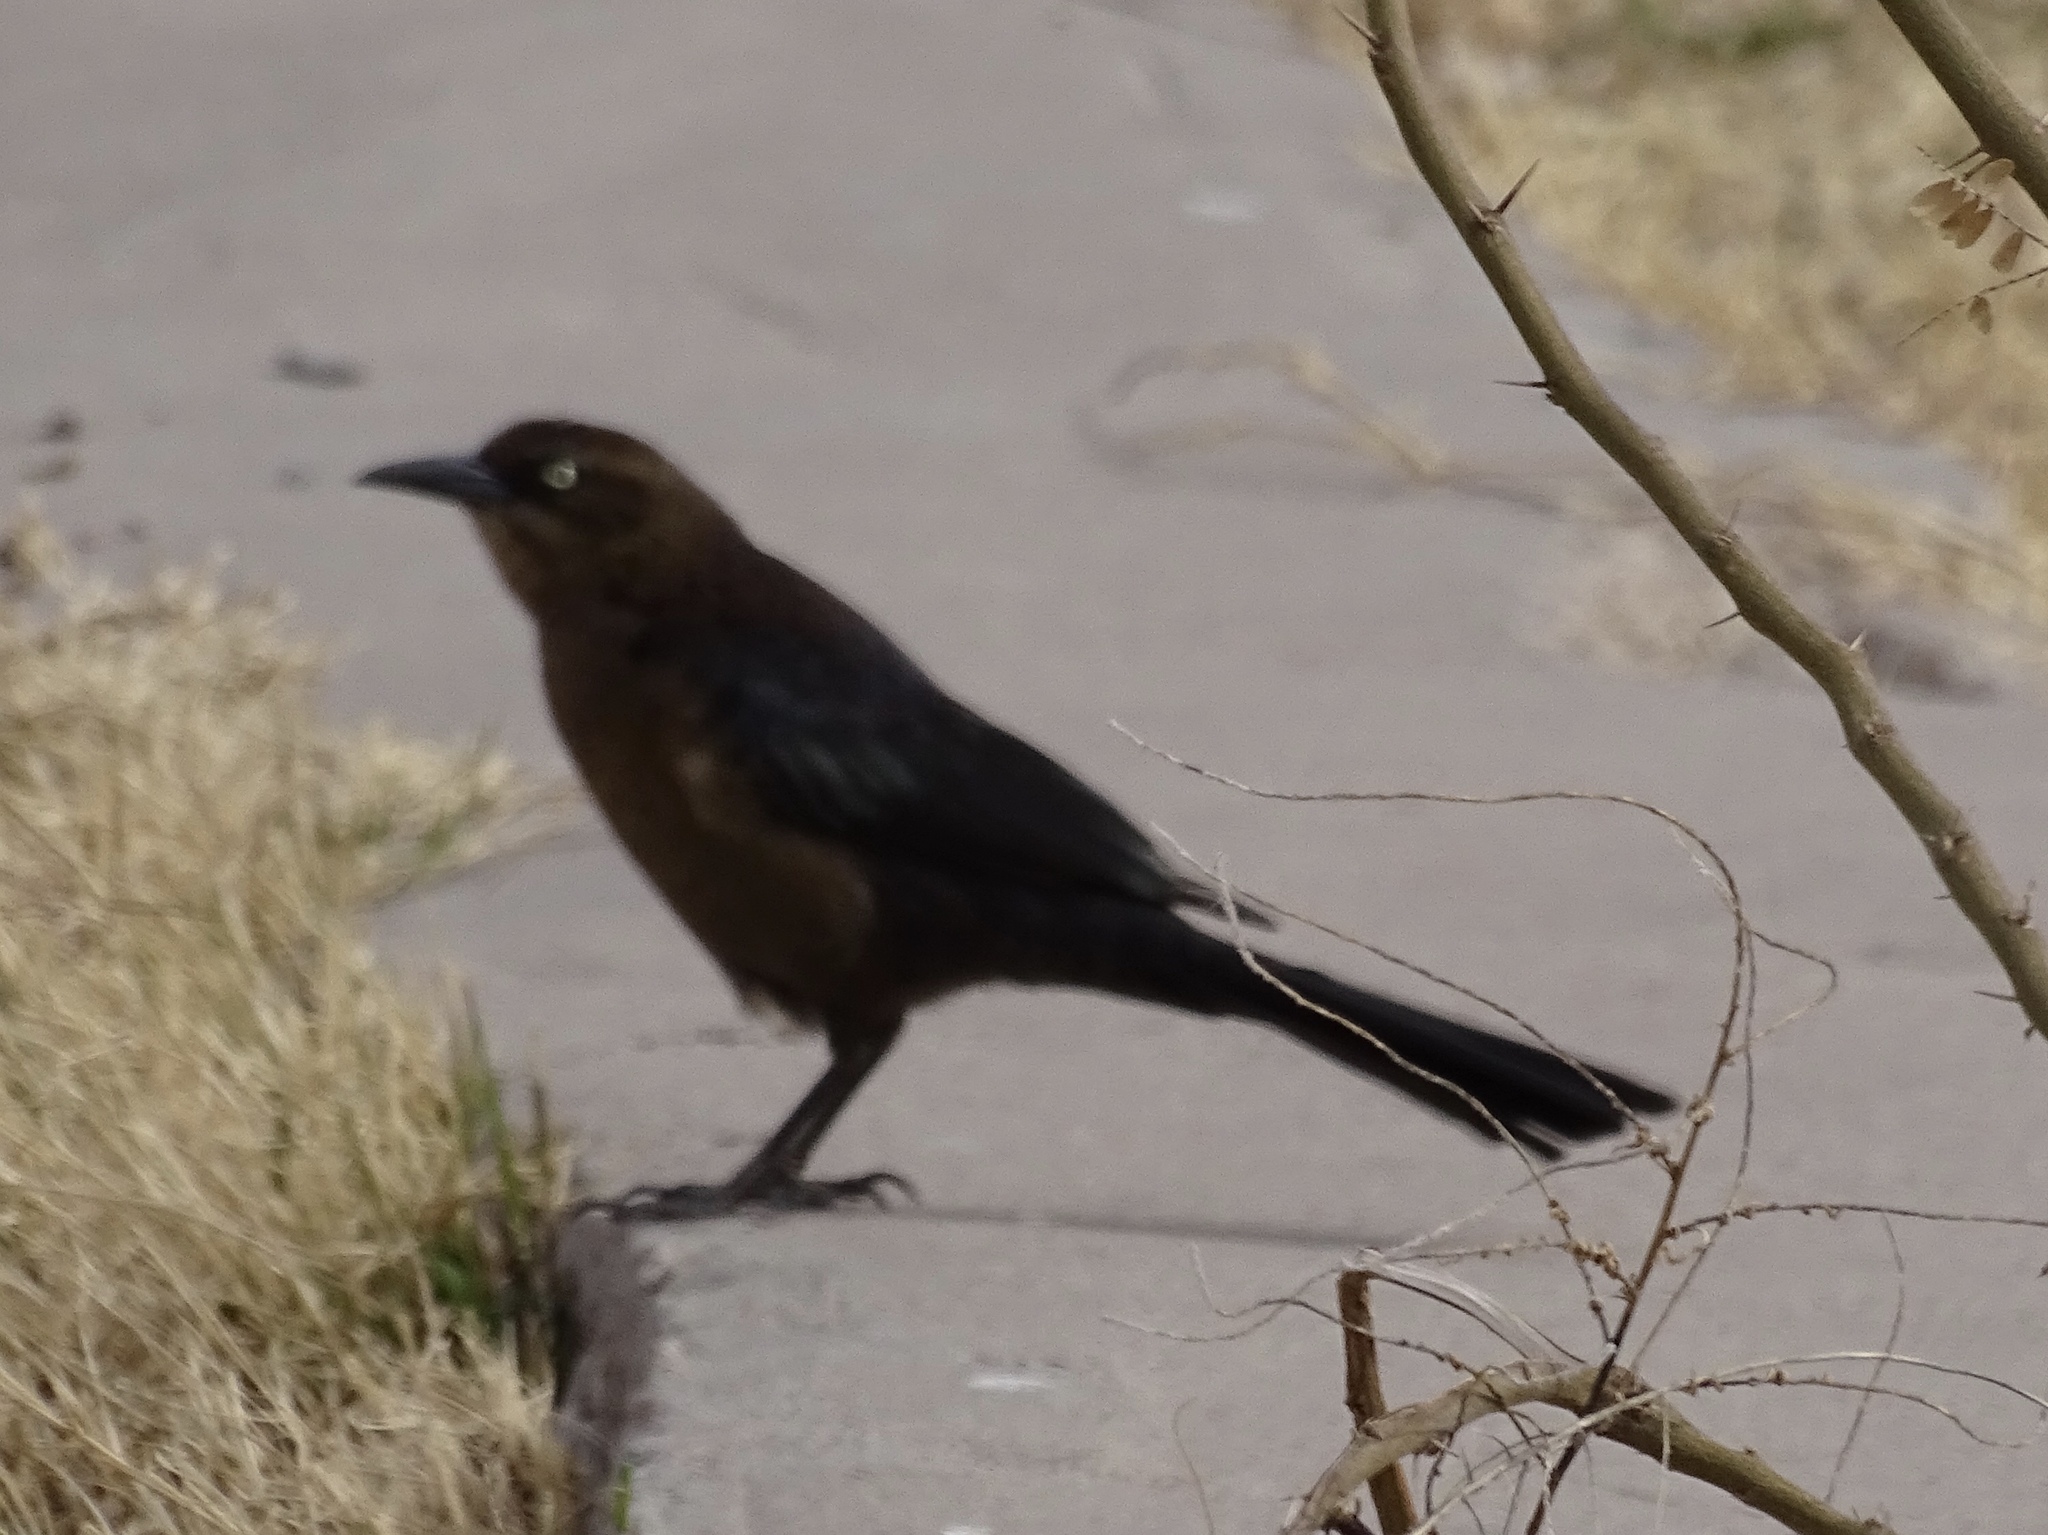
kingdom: Animalia
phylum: Chordata
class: Aves
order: Passeriformes
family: Icteridae
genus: Quiscalus
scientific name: Quiscalus mexicanus
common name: Great-tailed grackle
